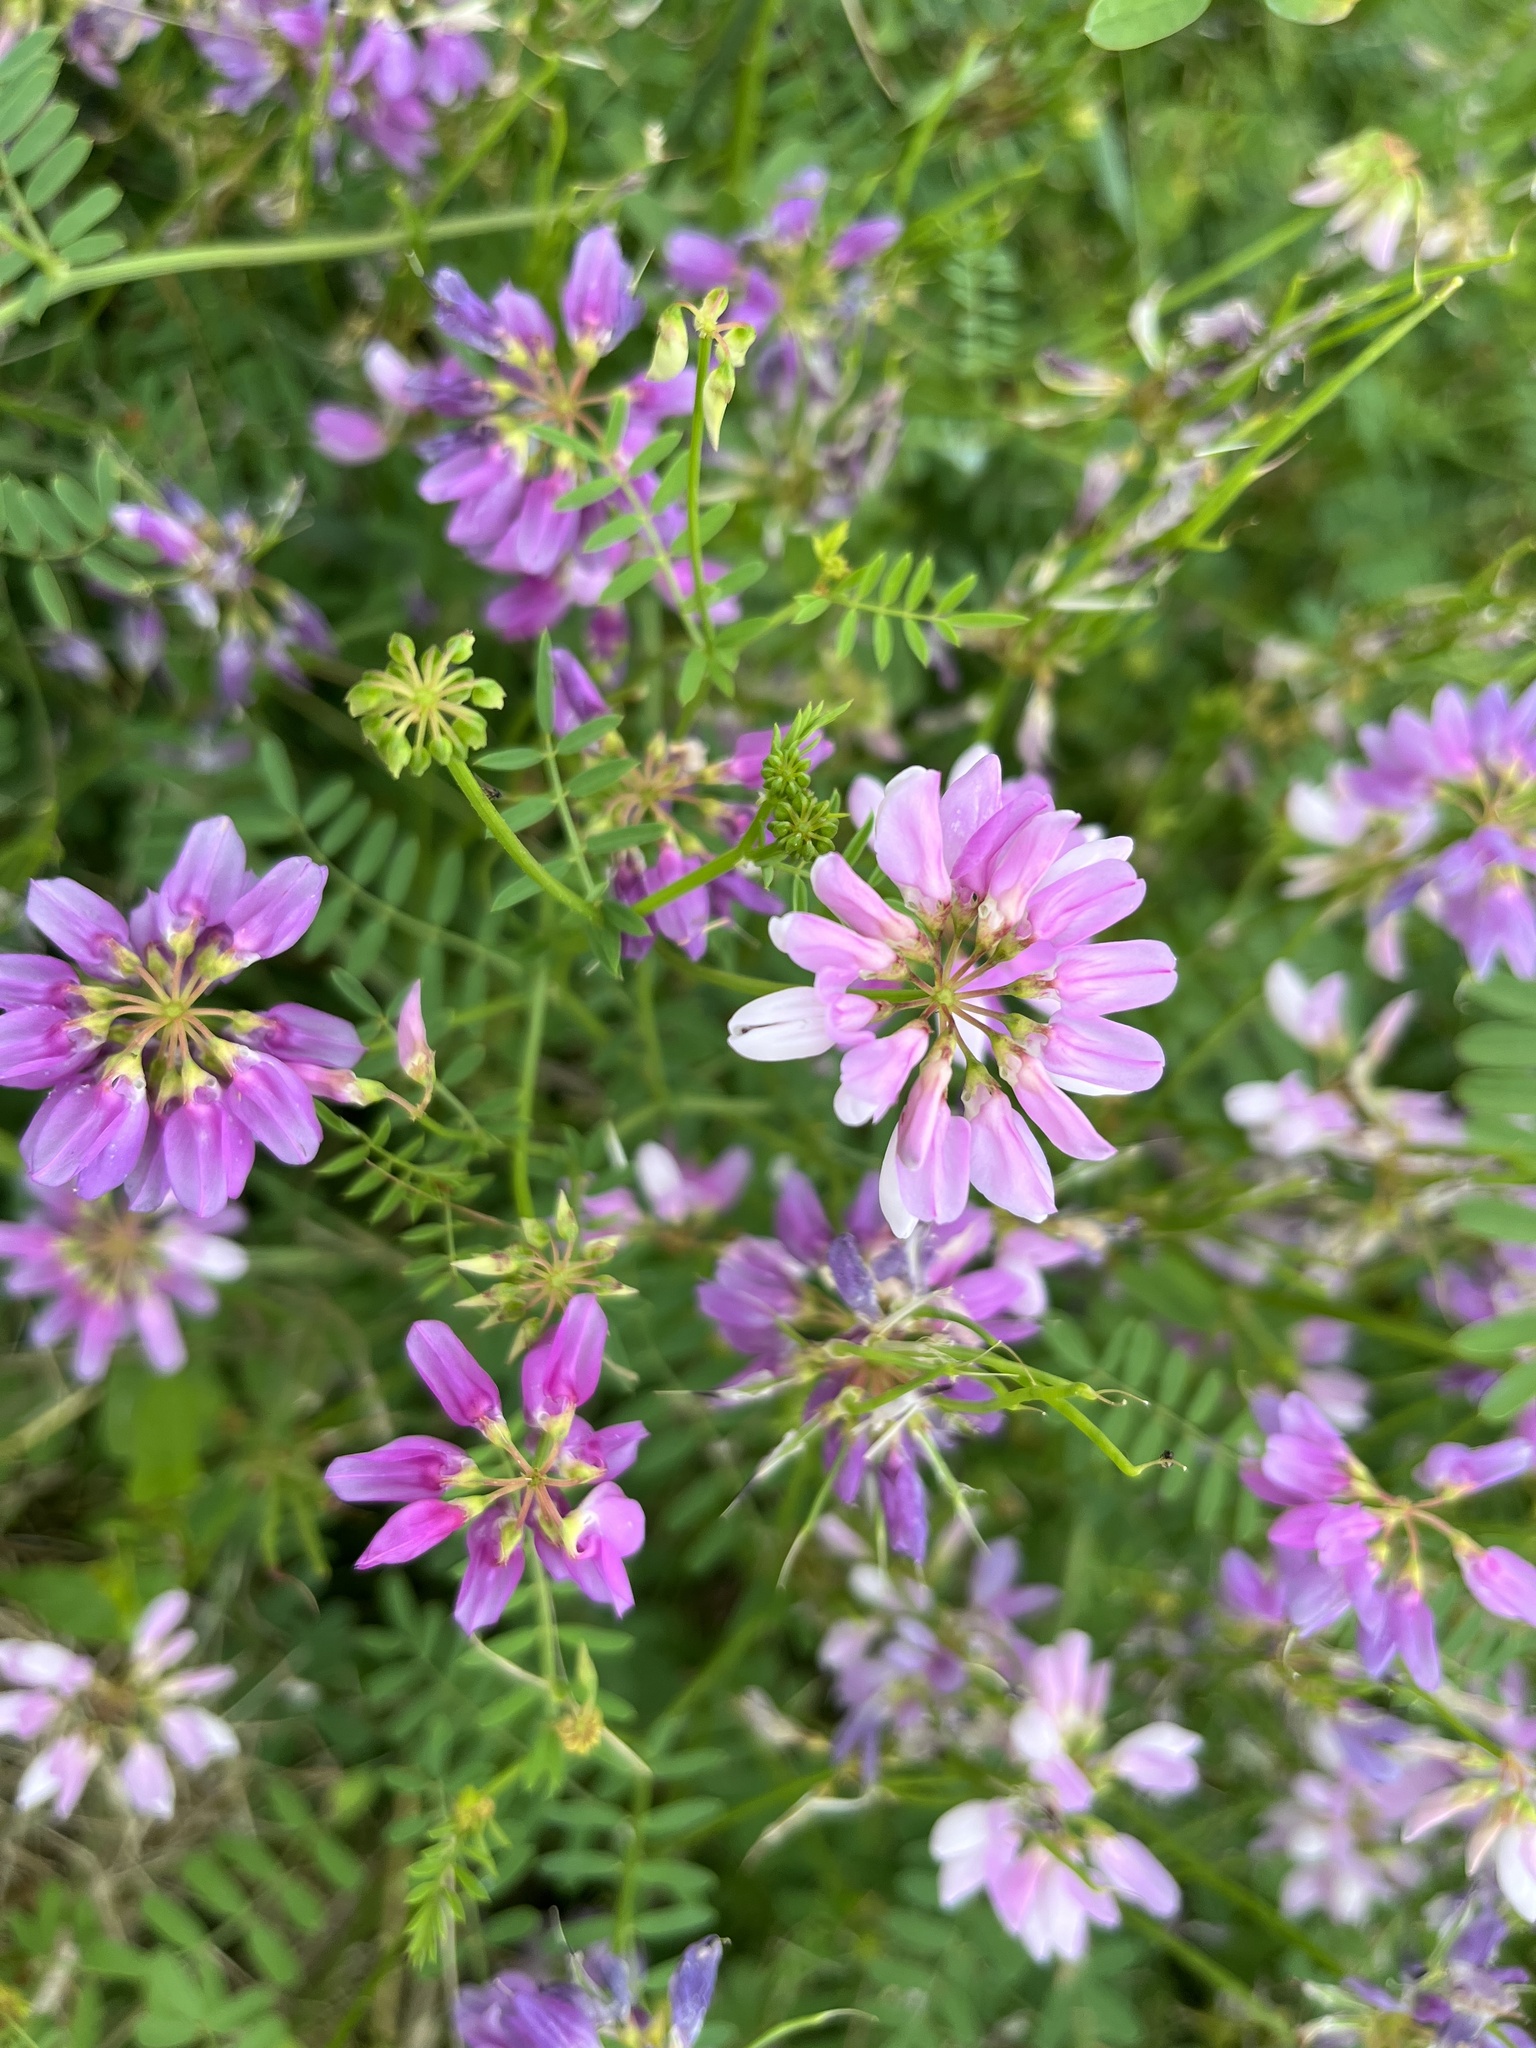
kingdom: Plantae
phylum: Tracheophyta
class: Magnoliopsida
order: Fabales
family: Fabaceae
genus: Coronilla
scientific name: Coronilla varia
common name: Crownvetch
